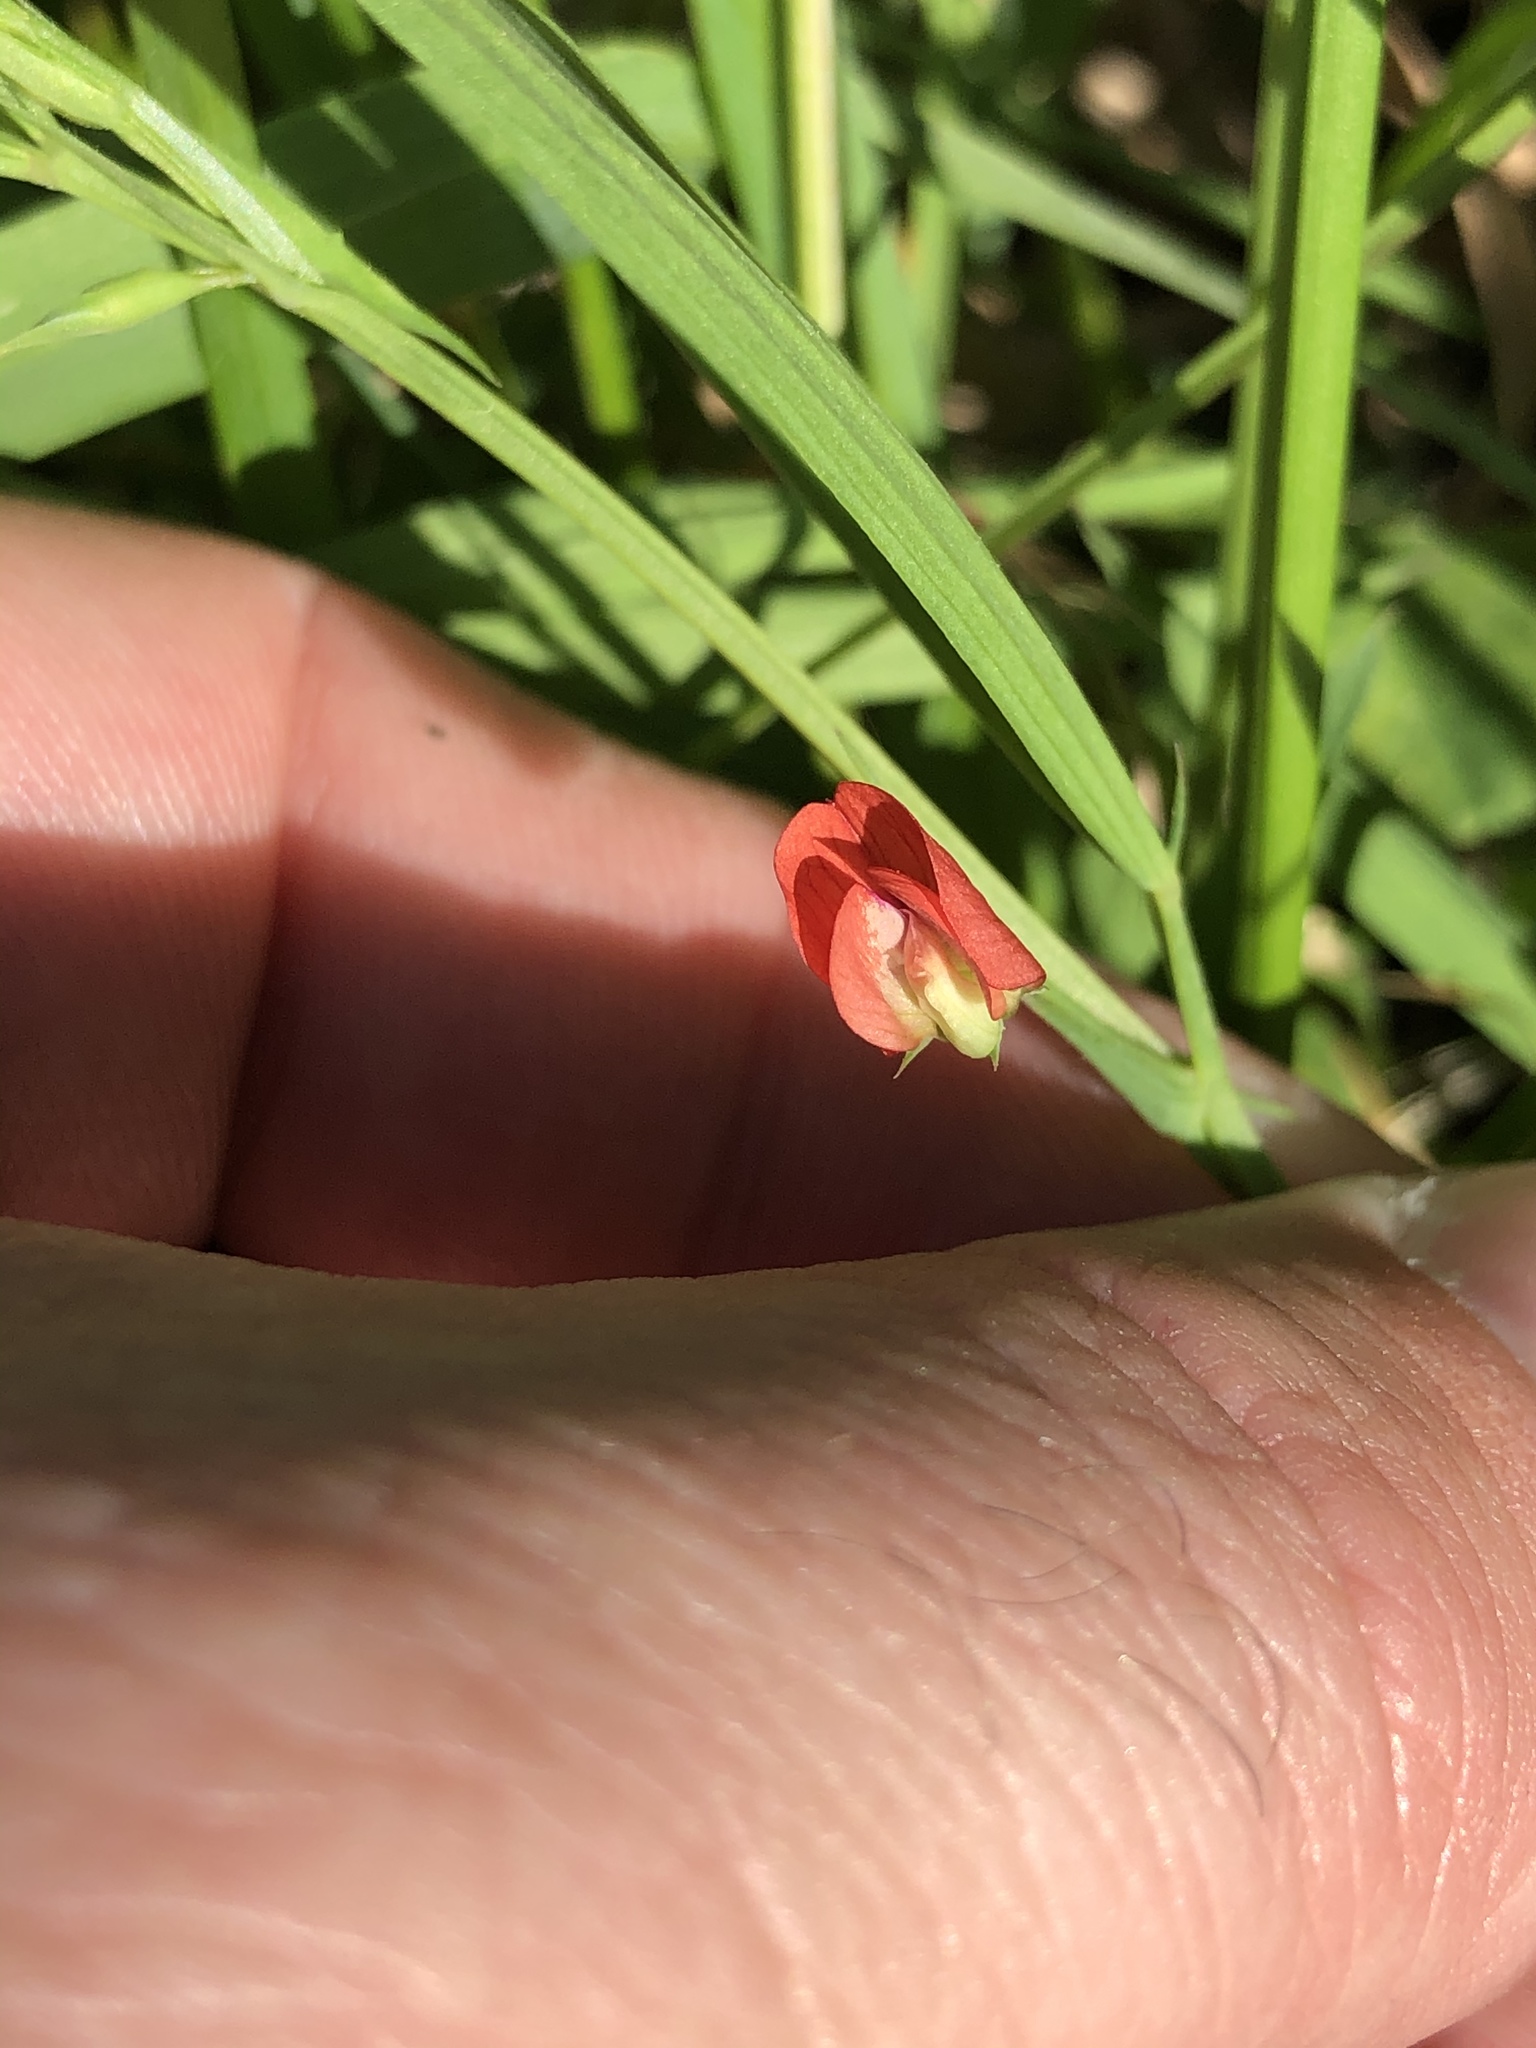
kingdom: Plantae
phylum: Tracheophyta
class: Magnoliopsida
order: Fabales
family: Fabaceae
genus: Lathyrus
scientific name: Lathyrus sphaericus
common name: Grass pea
